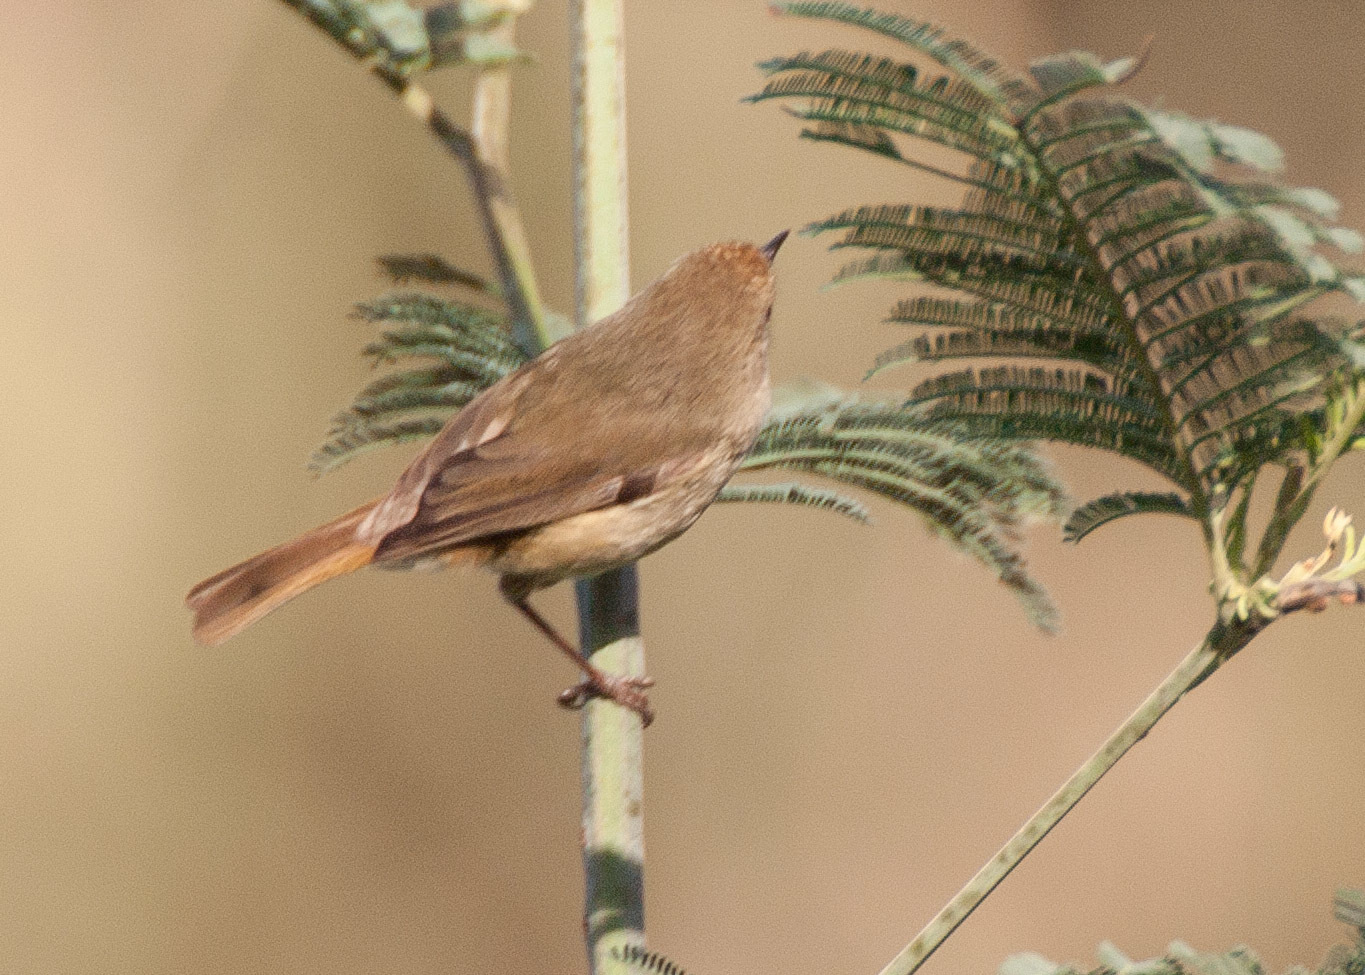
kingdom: Animalia
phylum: Chordata
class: Aves
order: Passeriformes
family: Acanthizidae
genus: Acanthiza
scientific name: Acanthiza pusilla
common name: Brown thornbill
